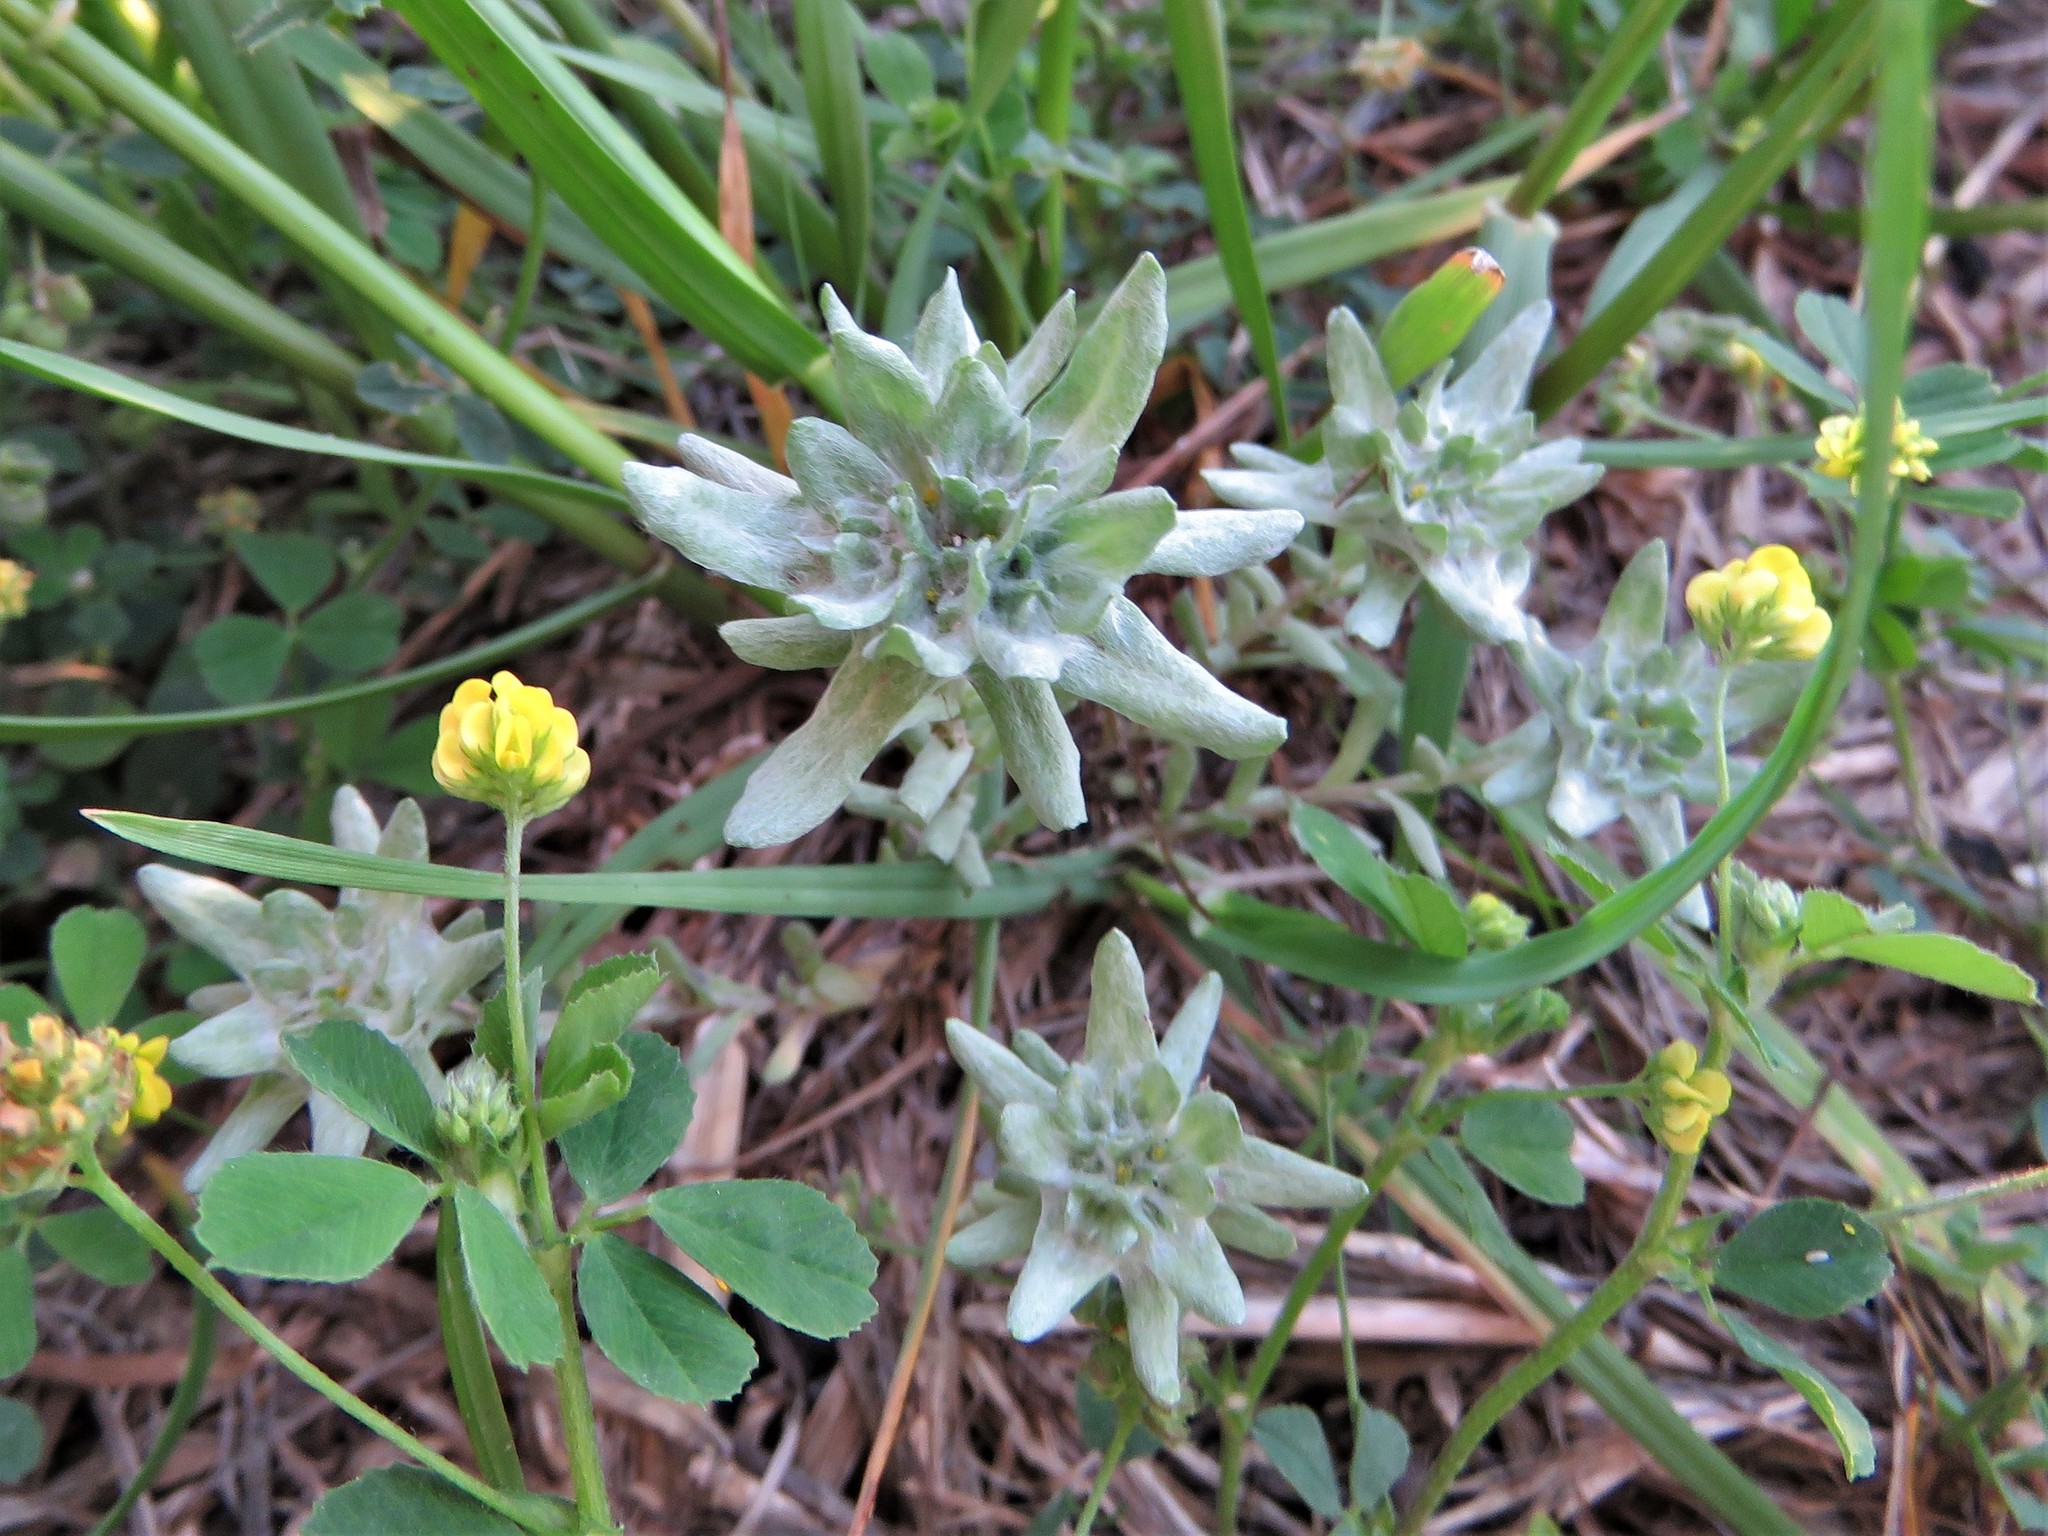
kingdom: Plantae
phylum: Tracheophyta
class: Magnoliopsida
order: Asterales
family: Asteraceae
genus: Diaperia
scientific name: Diaperia prolifera
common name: Big-head rabbit-tobacco
